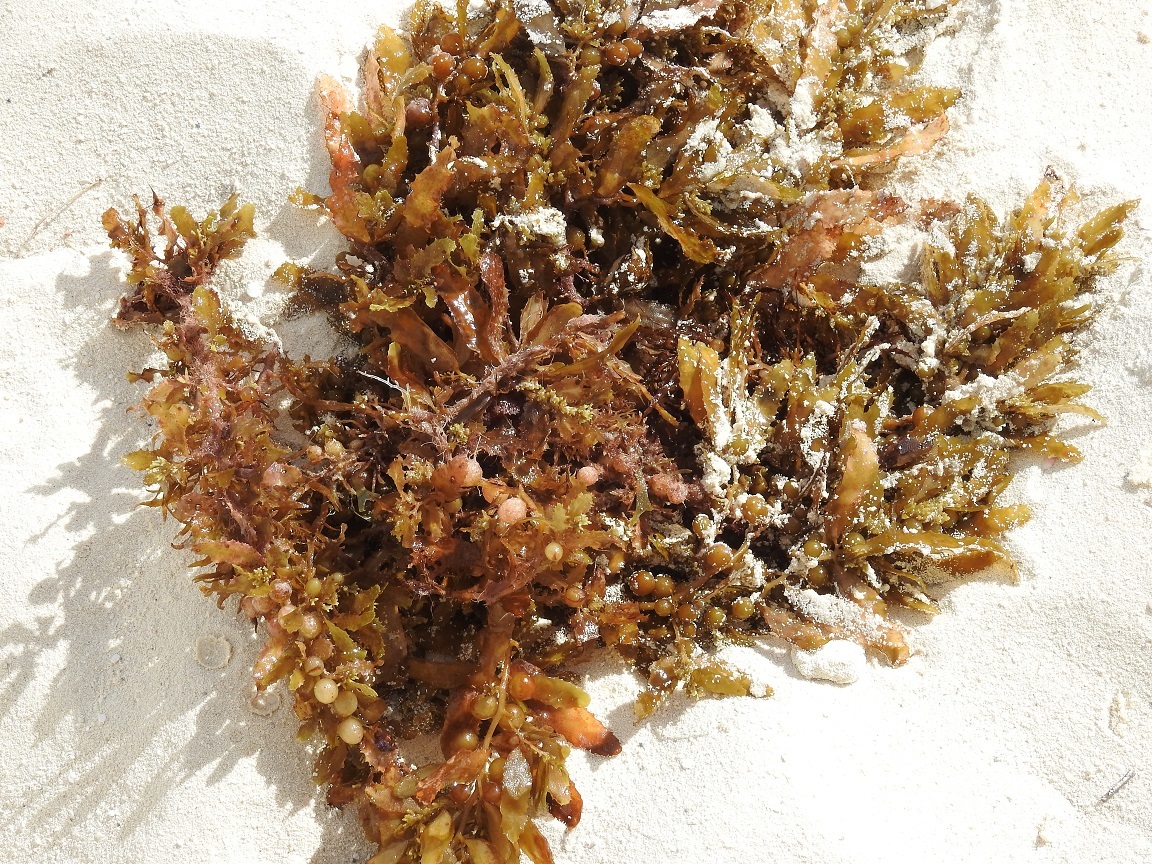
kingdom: Chromista
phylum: Ochrophyta
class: Phaeophyceae
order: Fucales
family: Sargassaceae
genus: Sargassum
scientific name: Sargassum fluitans
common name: Sargassum seaweed
